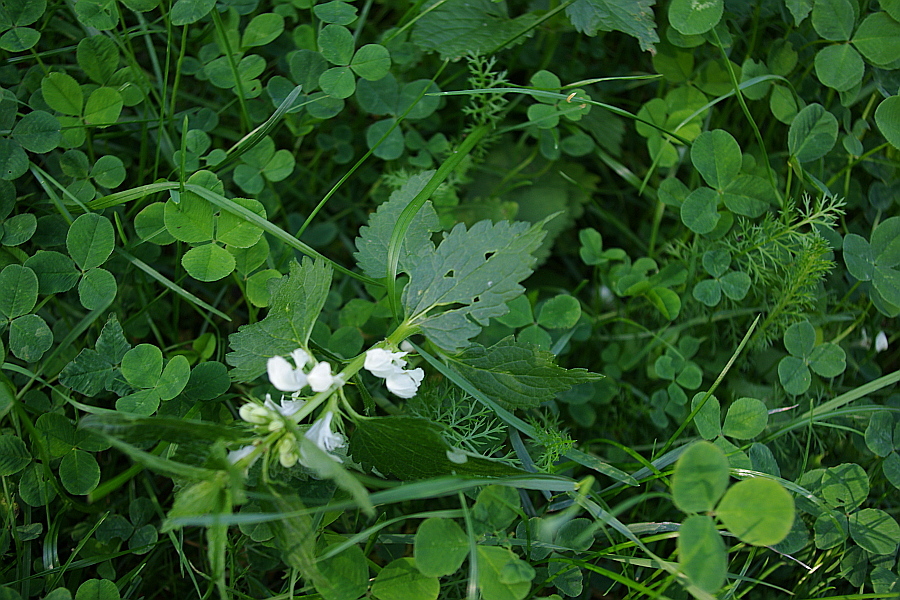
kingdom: Plantae
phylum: Tracheophyta
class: Magnoliopsida
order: Lamiales
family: Lamiaceae
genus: Lamium
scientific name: Lamium album
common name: White dead-nettle
